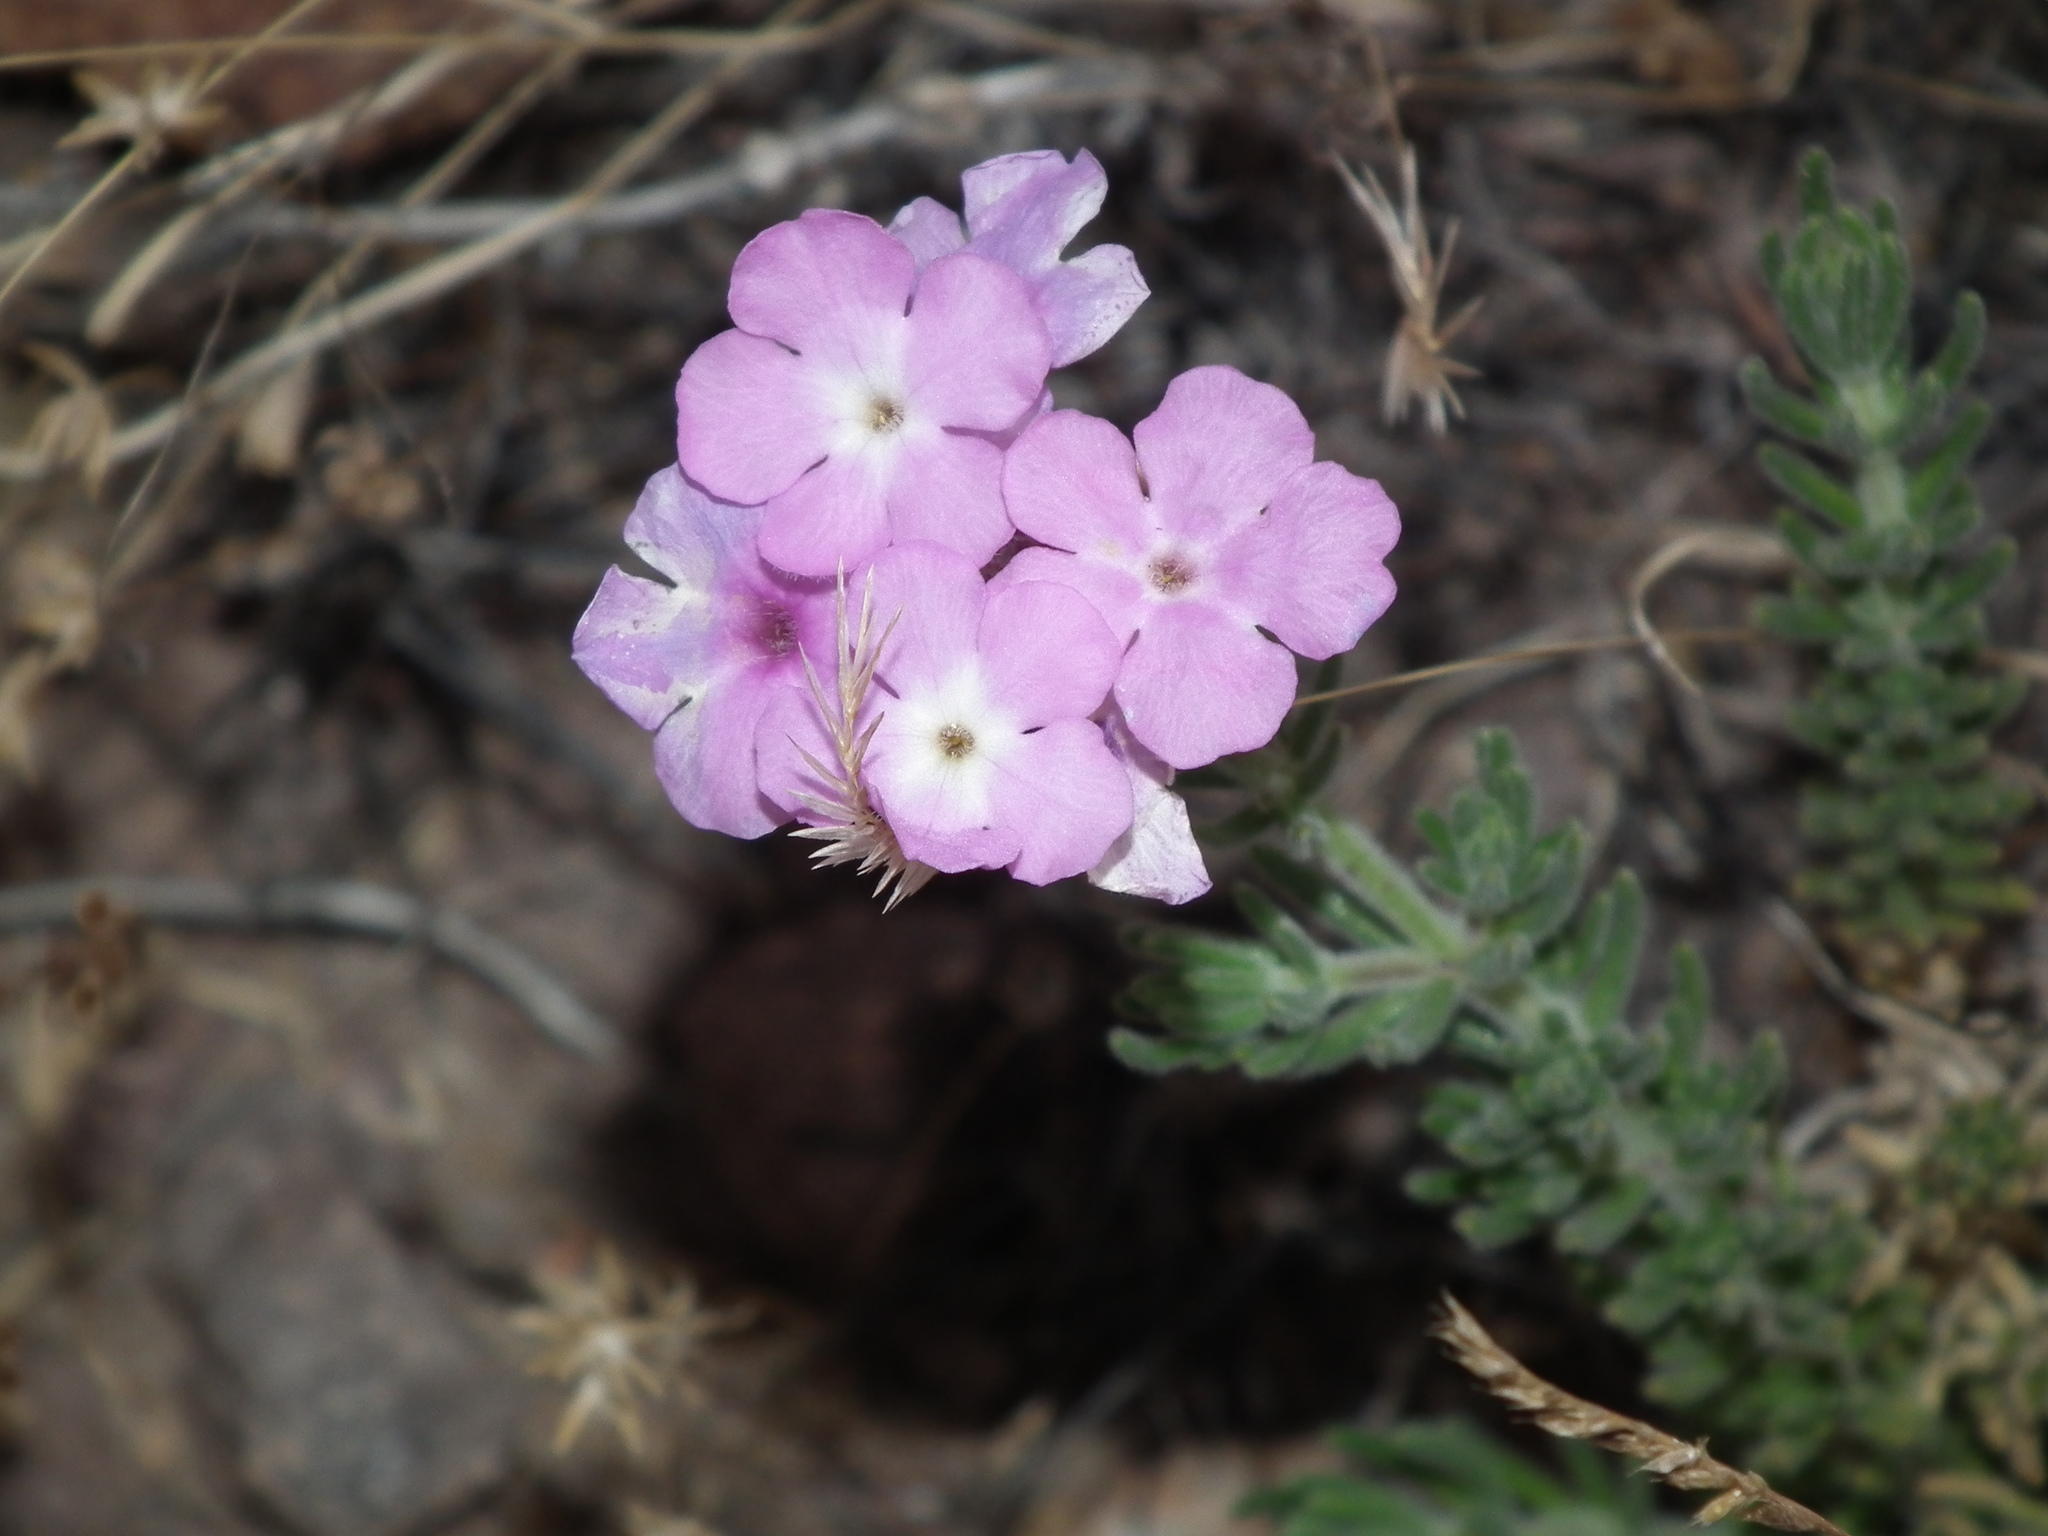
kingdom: Plantae
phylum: Tracheophyta
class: Magnoliopsida
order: Lamiales
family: Verbenaceae
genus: Verbena
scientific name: Verbena gynobasis
